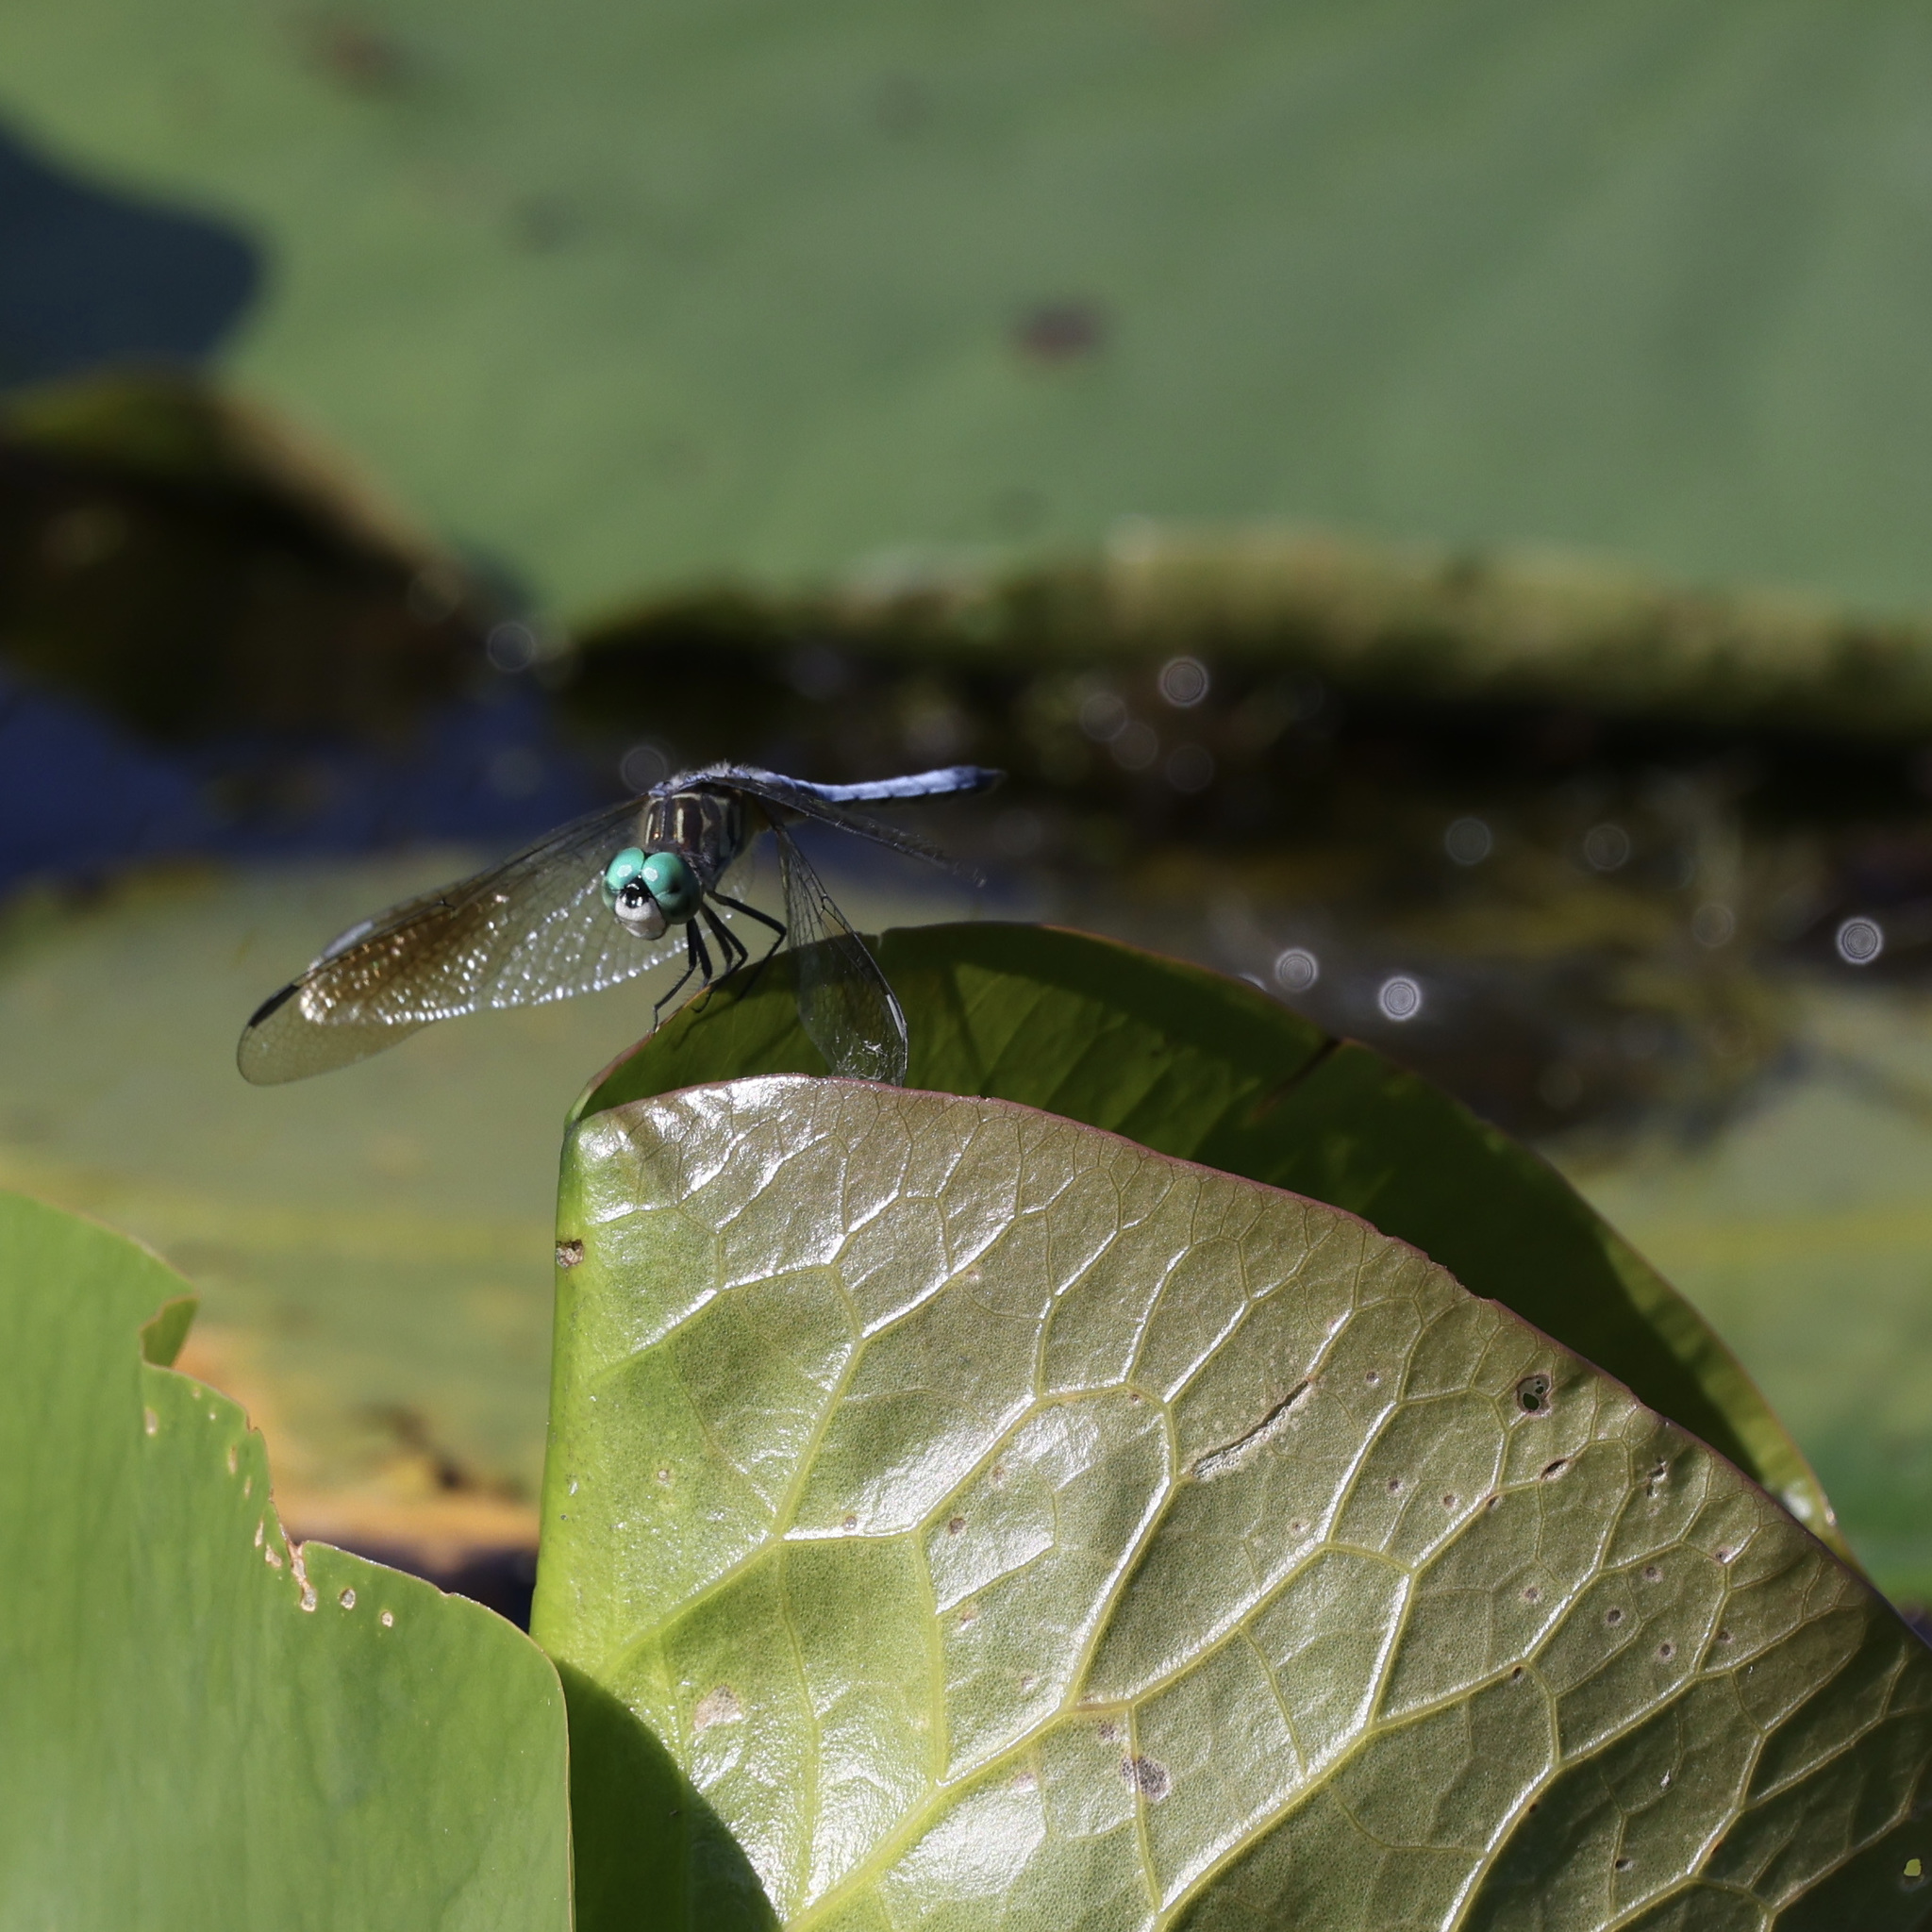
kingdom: Animalia
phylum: Arthropoda
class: Insecta
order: Odonata
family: Libellulidae
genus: Pachydiplax
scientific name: Pachydiplax longipennis
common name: Blue dasher
